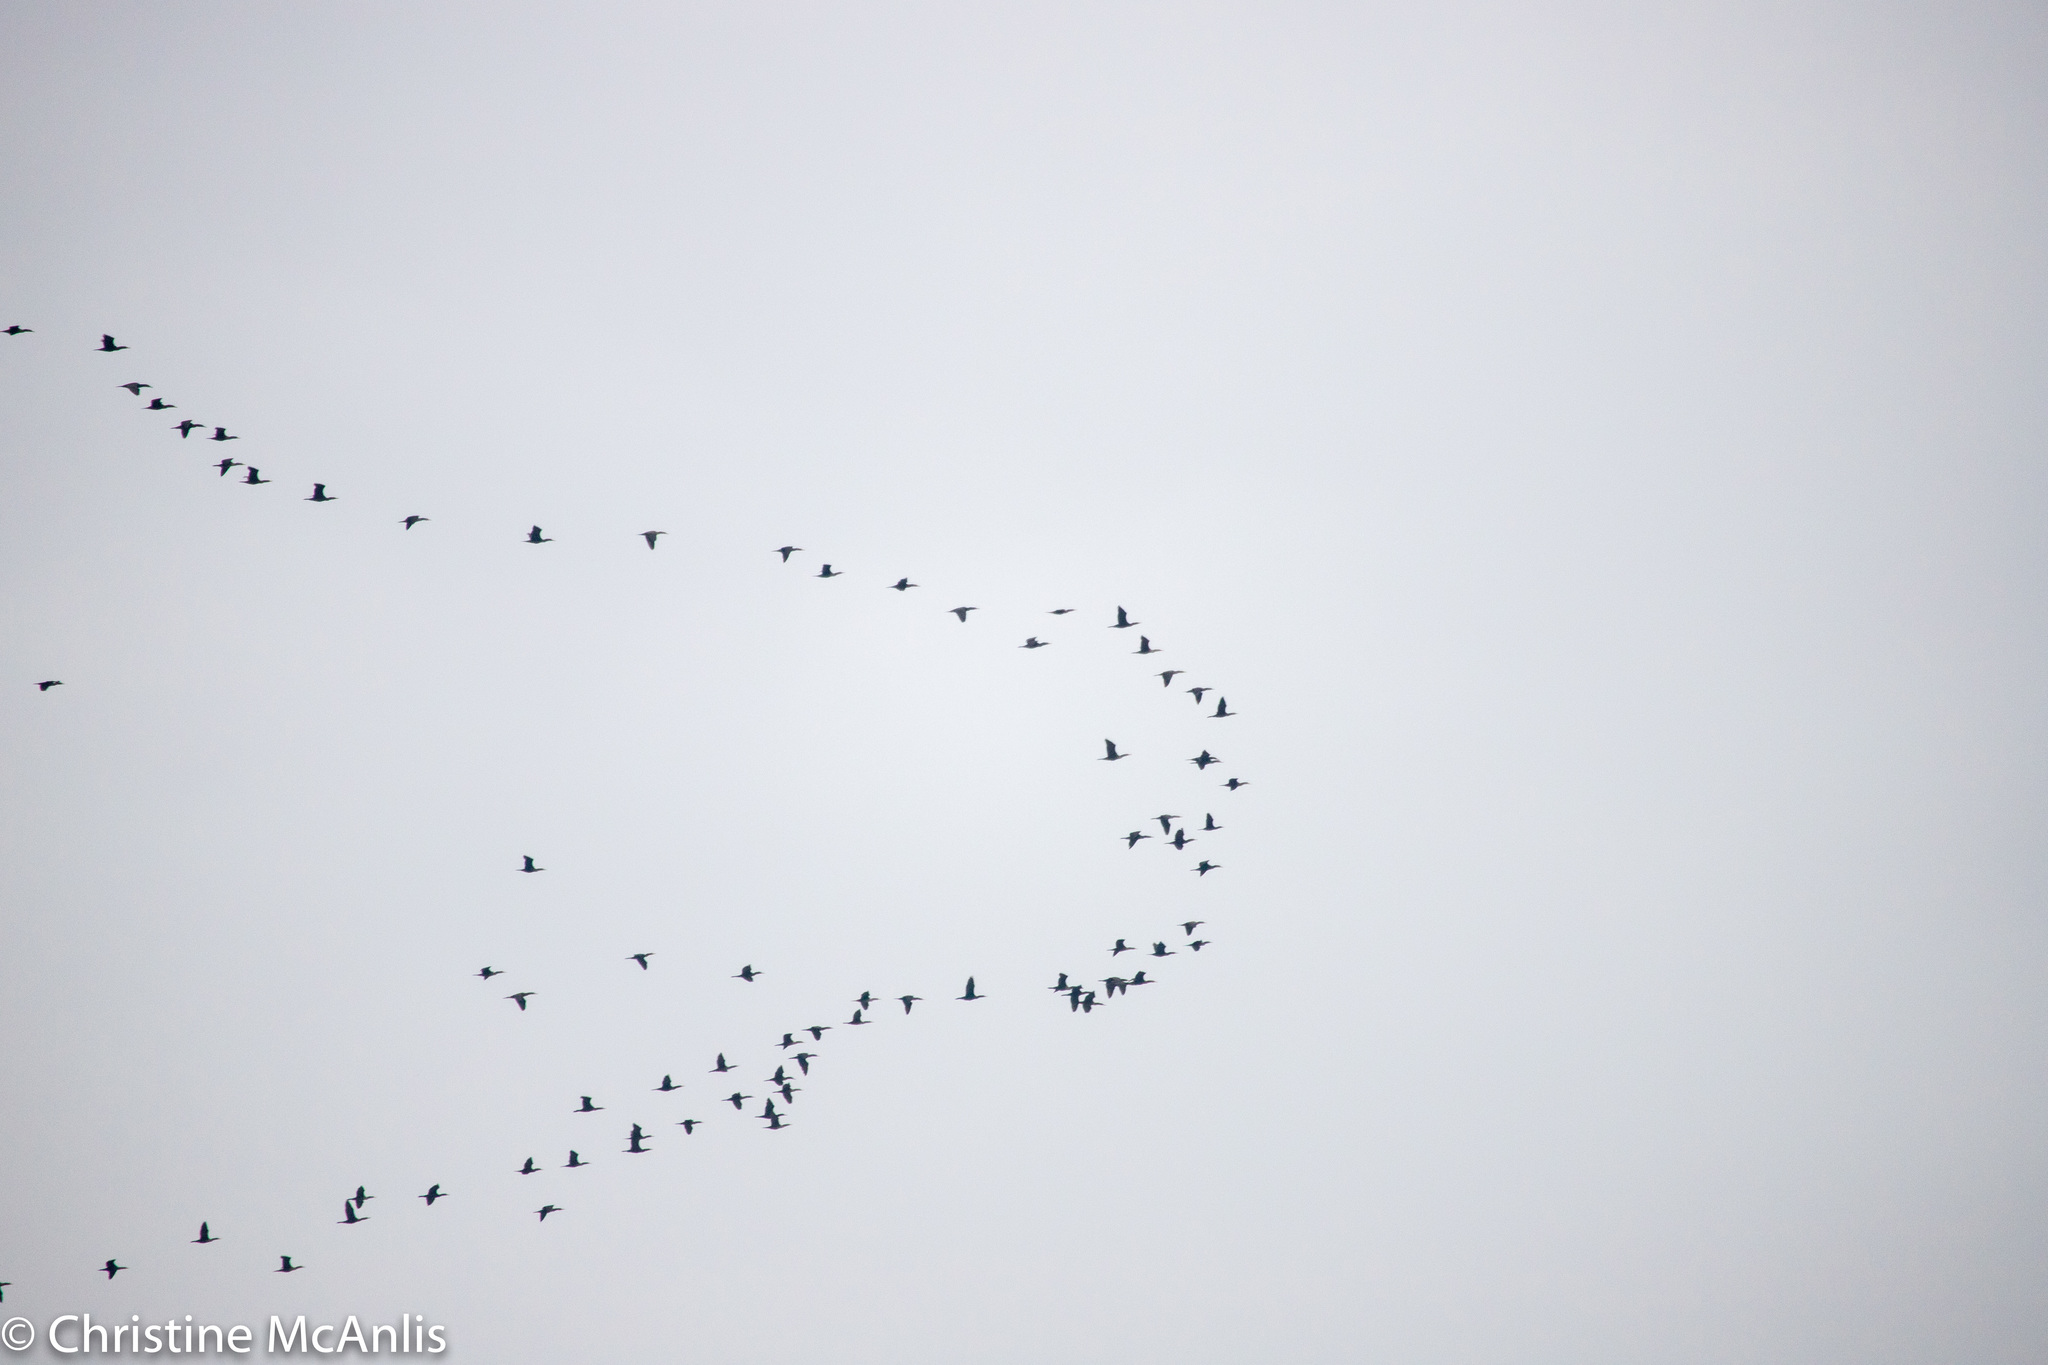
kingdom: Animalia
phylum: Chordata
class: Aves
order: Suliformes
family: Phalacrocoracidae
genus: Phalacrocorax
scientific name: Phalacrocorax auritus
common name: Double-crested cormorant
